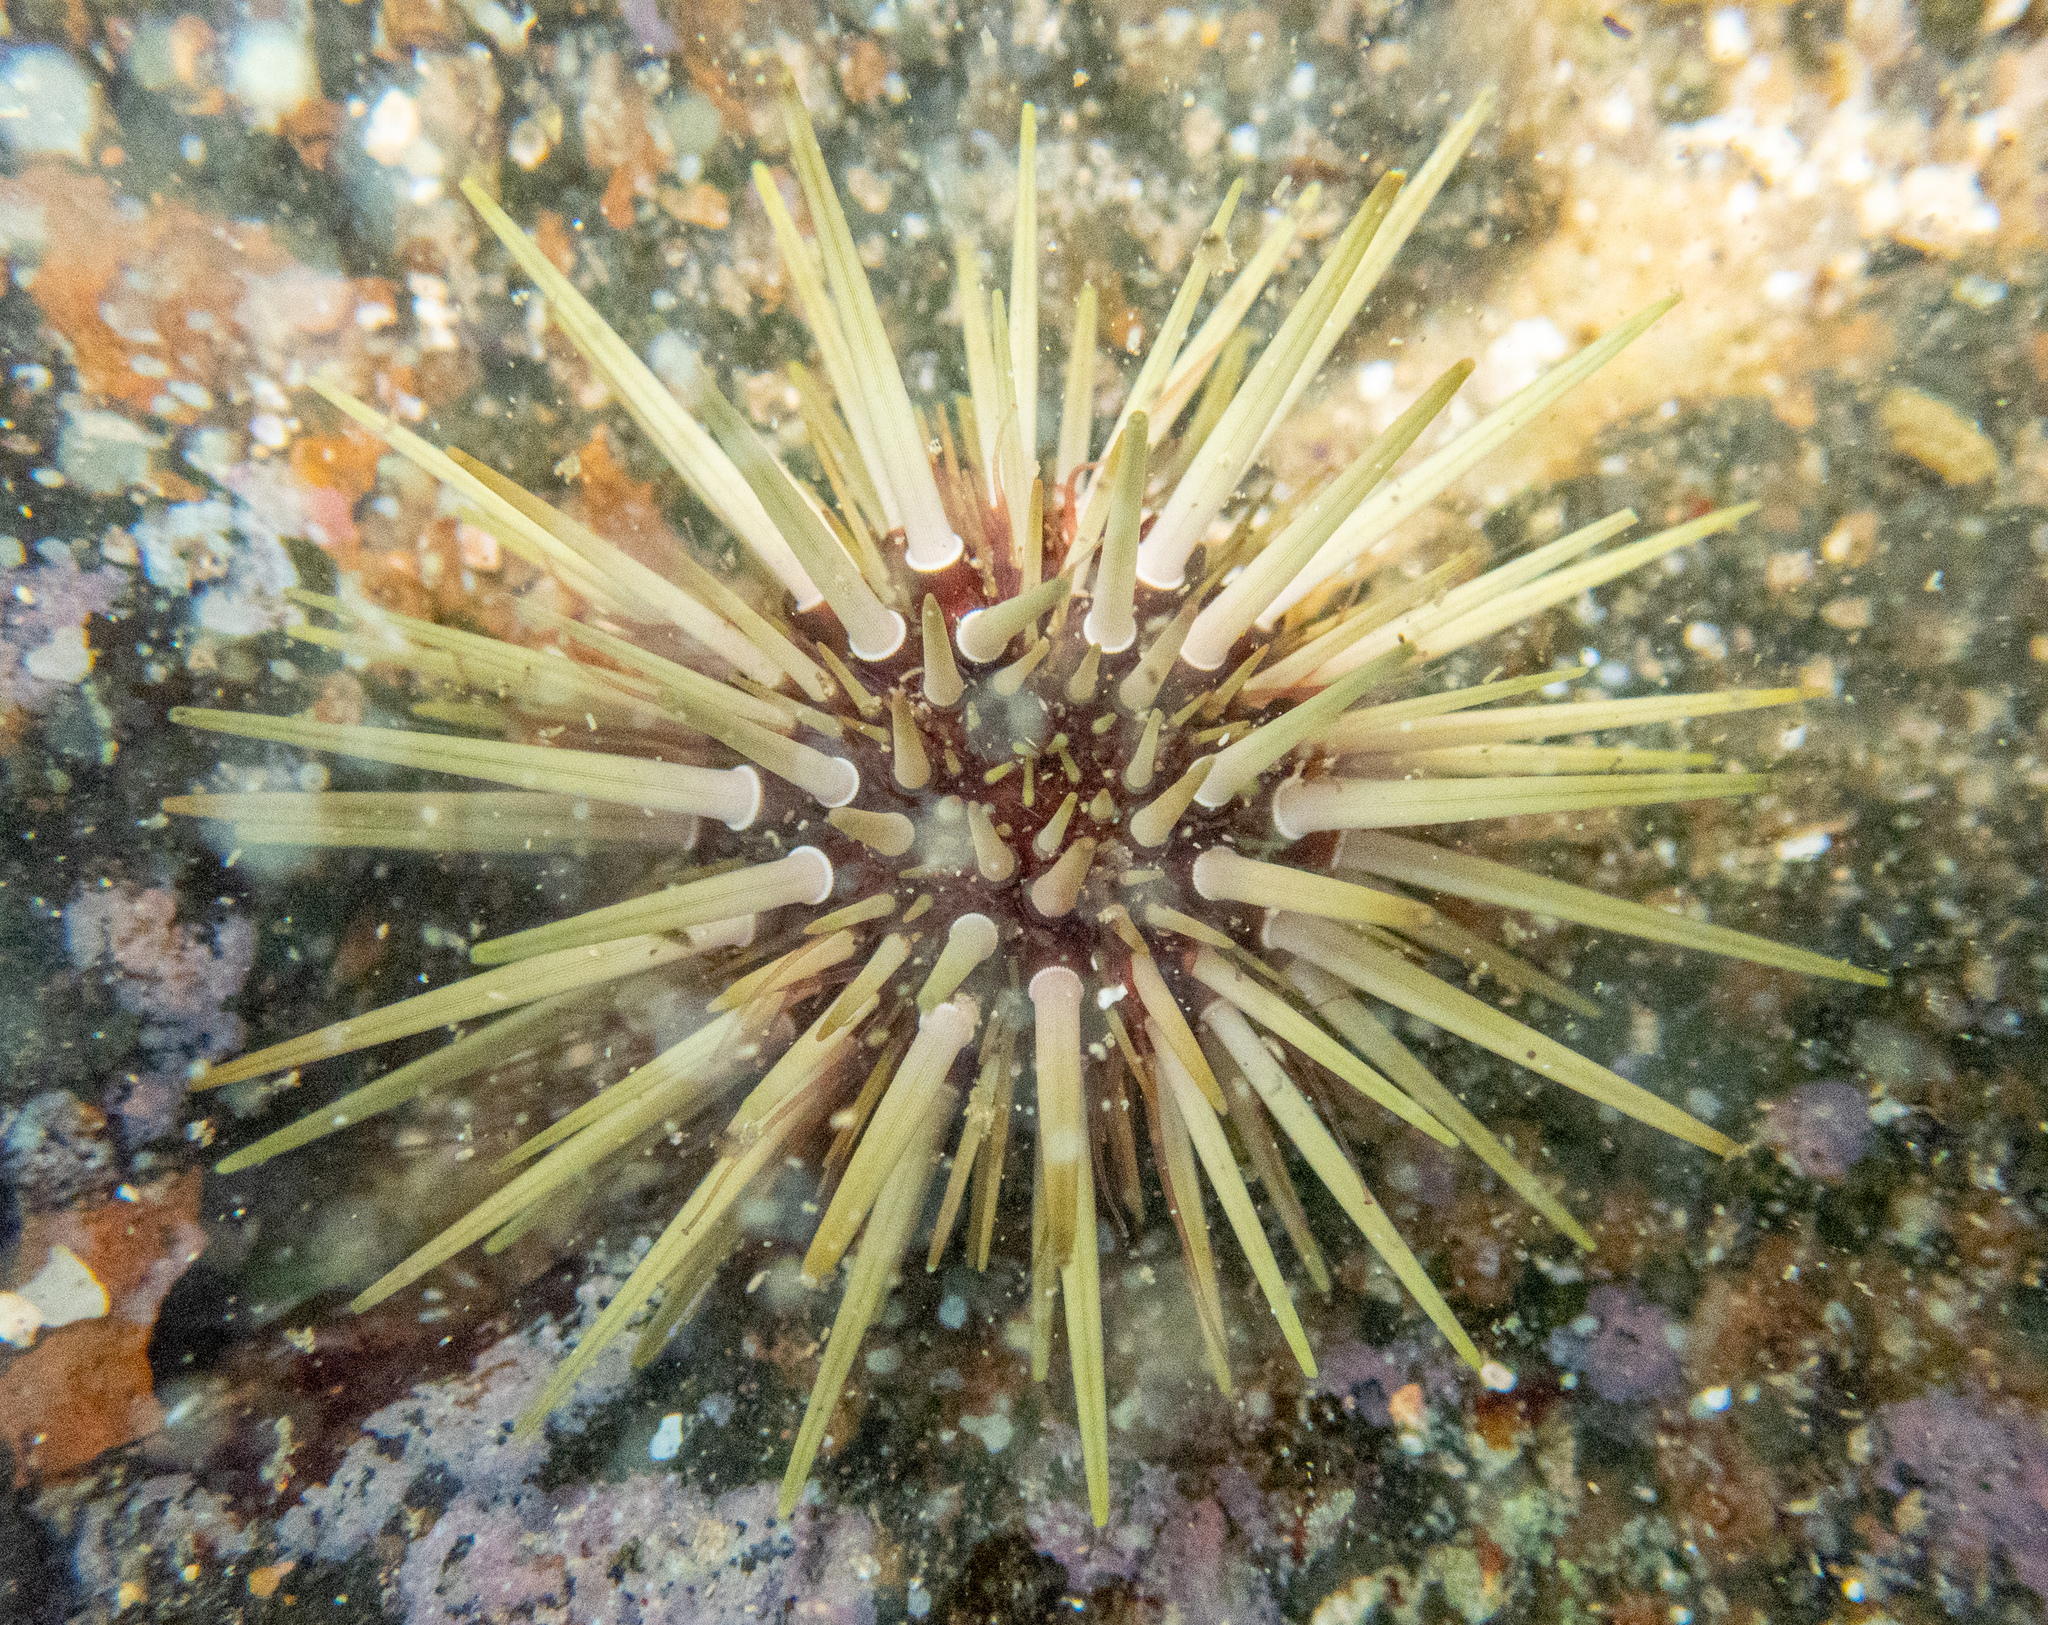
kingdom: Animalia
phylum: Echinodermata
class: Echinoidea
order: Camarodonta
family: Echinometridae
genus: Echinometra
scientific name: Echinometra mathaei
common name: Rock-boring urchin
